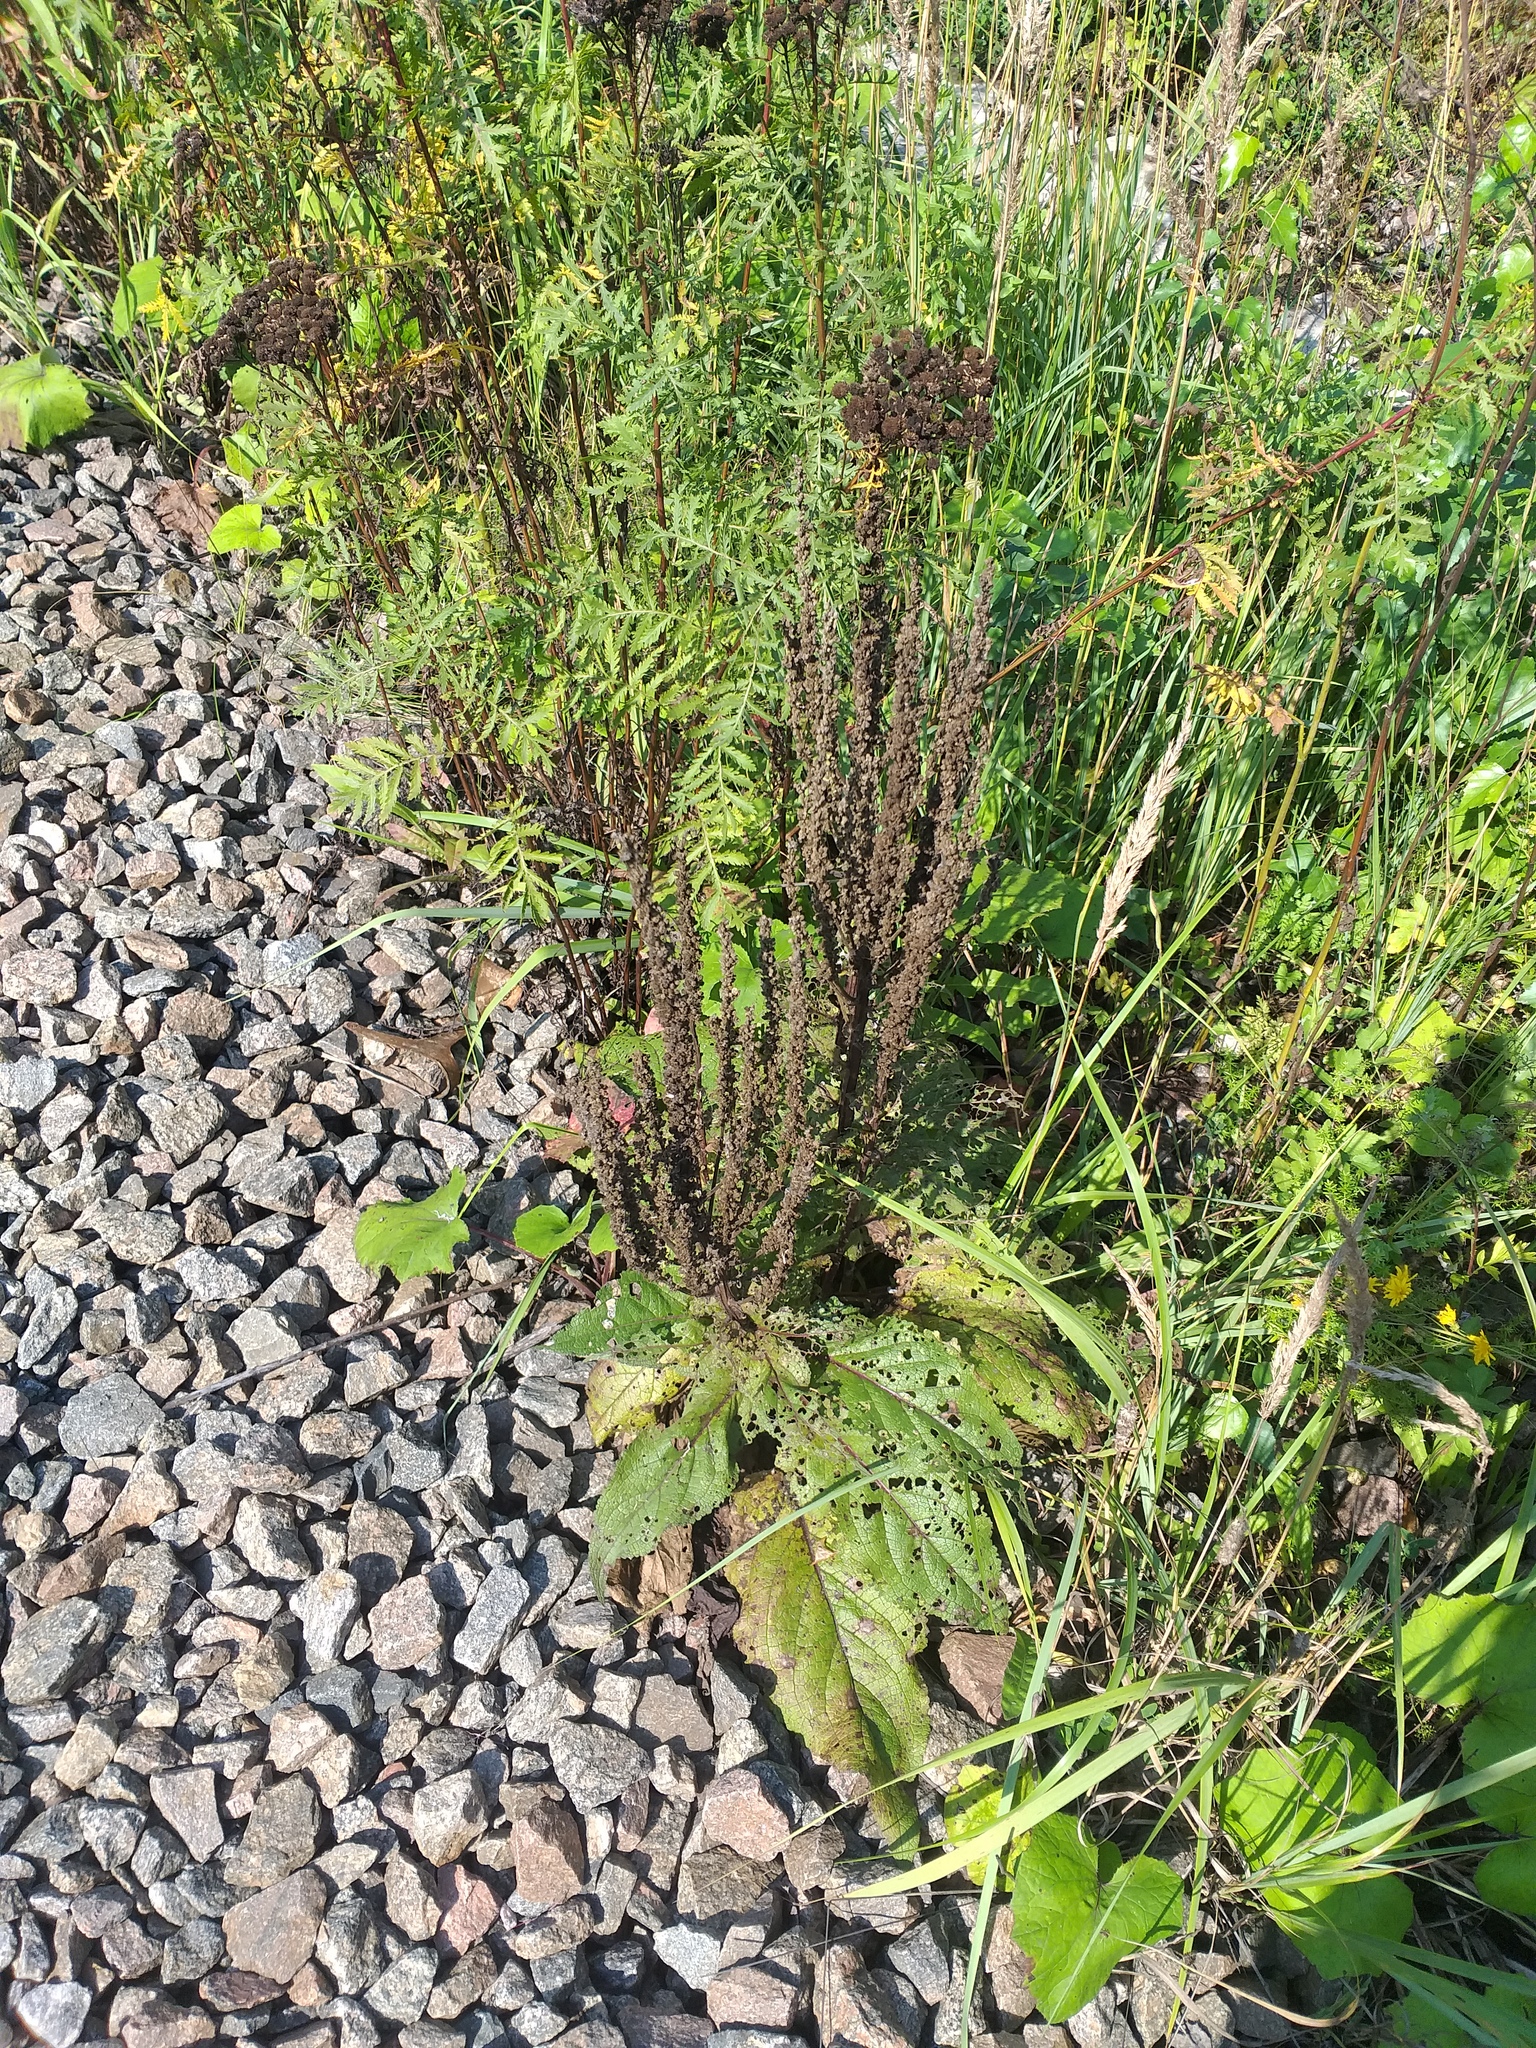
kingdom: Plantae
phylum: Tracheophyta
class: Magnoliopsida
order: Lamiales
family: Scrophulariaceae
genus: Verbascum
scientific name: Verbascum nigrum
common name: Dark mullein
